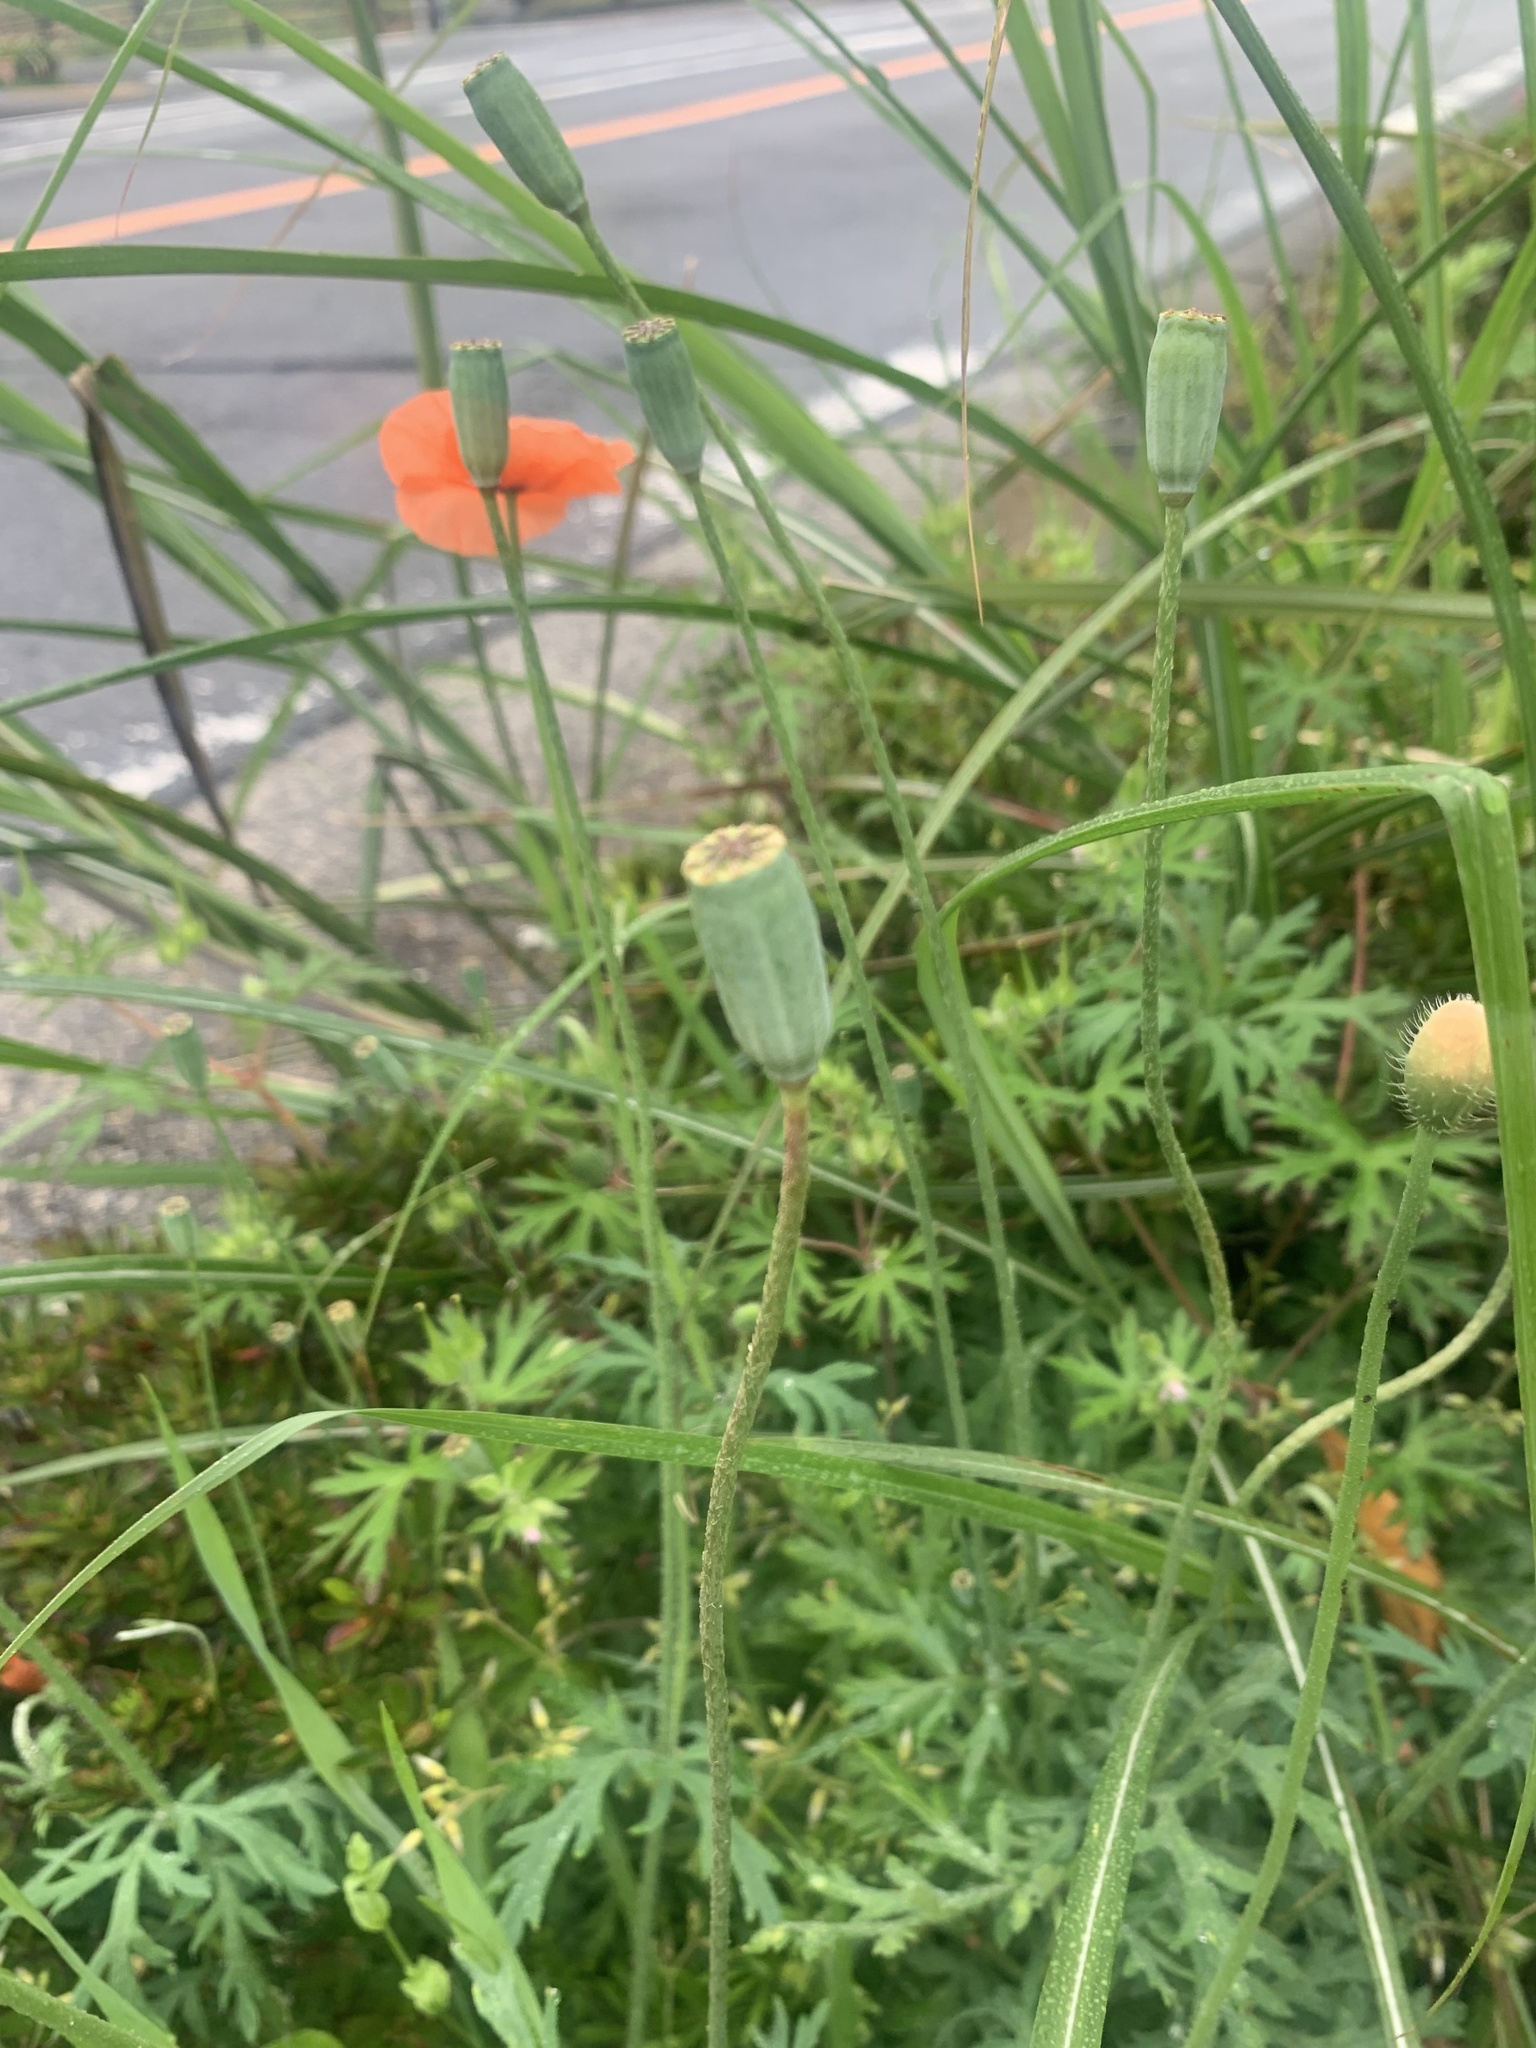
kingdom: Plantae
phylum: Tracheophyta
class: Magnoliopsida
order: Ranunculales
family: Papaveraceae
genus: Papaver
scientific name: Papaver dubium
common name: Long-headed poppy
